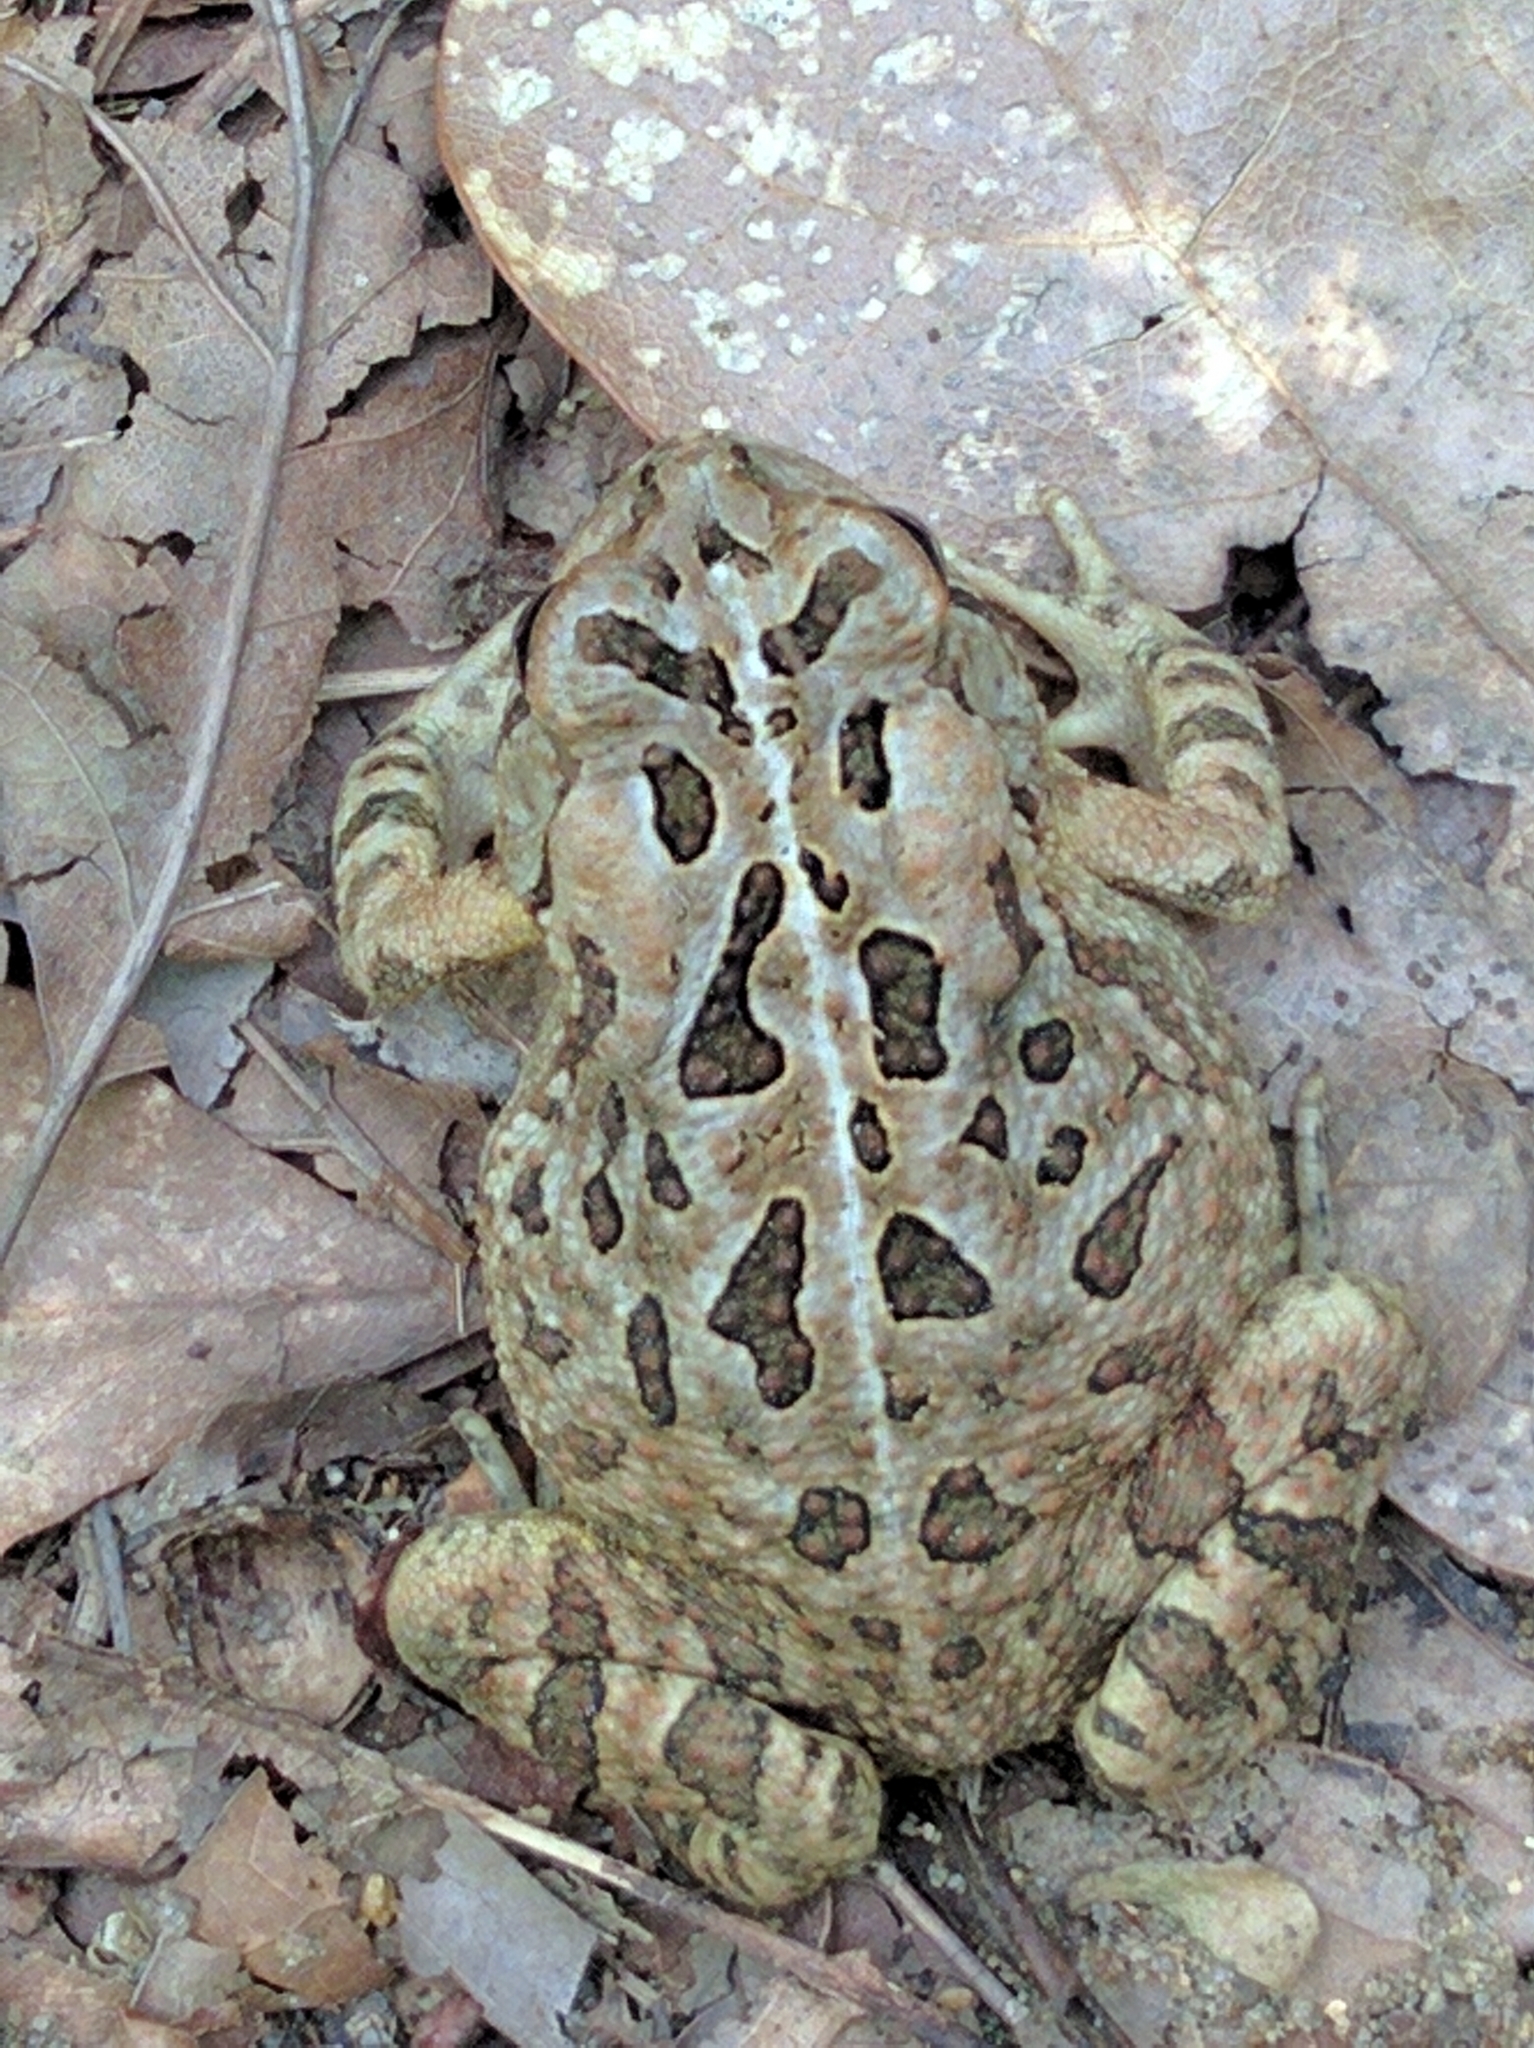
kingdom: Animalia
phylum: Chordata
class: Amphibia
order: Anura
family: Bufonidae
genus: Anaxyrus
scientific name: Anaxyrus fowleri
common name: Fowler's toad
